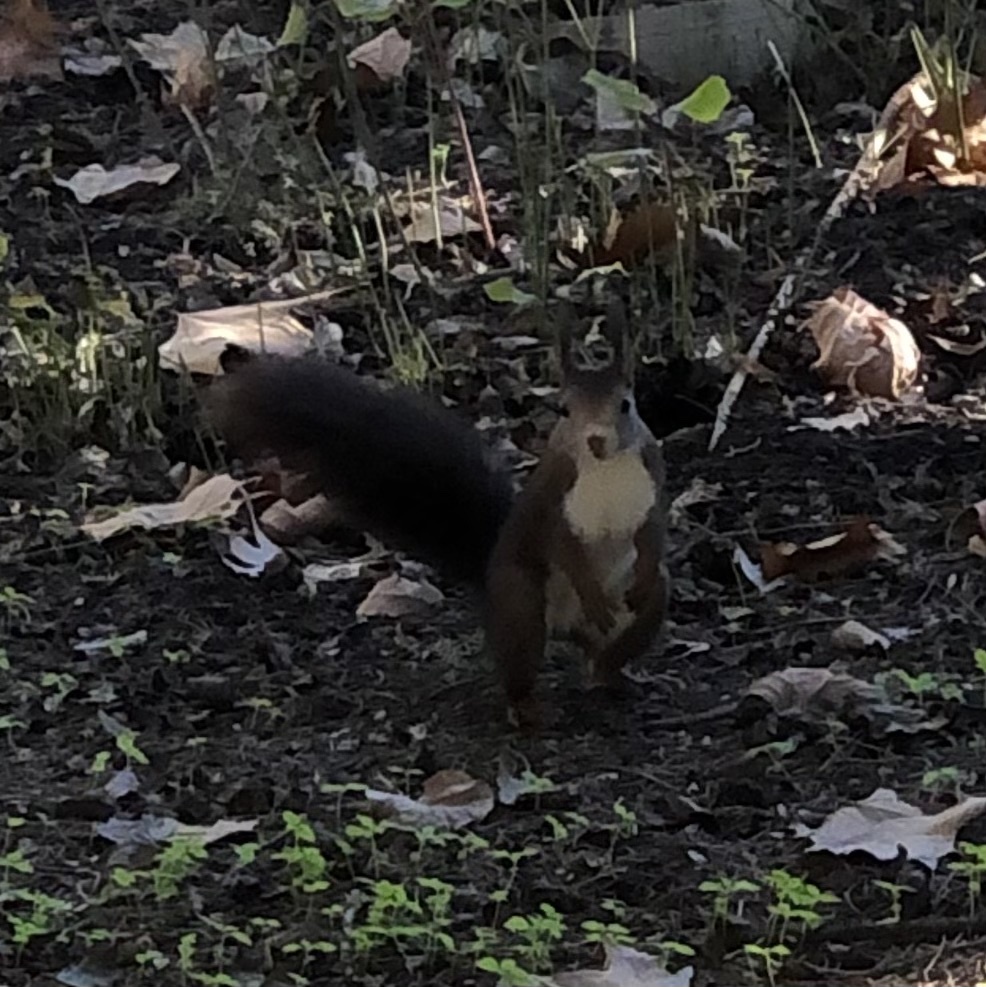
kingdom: Animalia
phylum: Chordata
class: Mammalia
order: Rodentia
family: Sciuridae
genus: Sciurus
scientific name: Sciurus vulgaris
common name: Eurasian red squirrel
